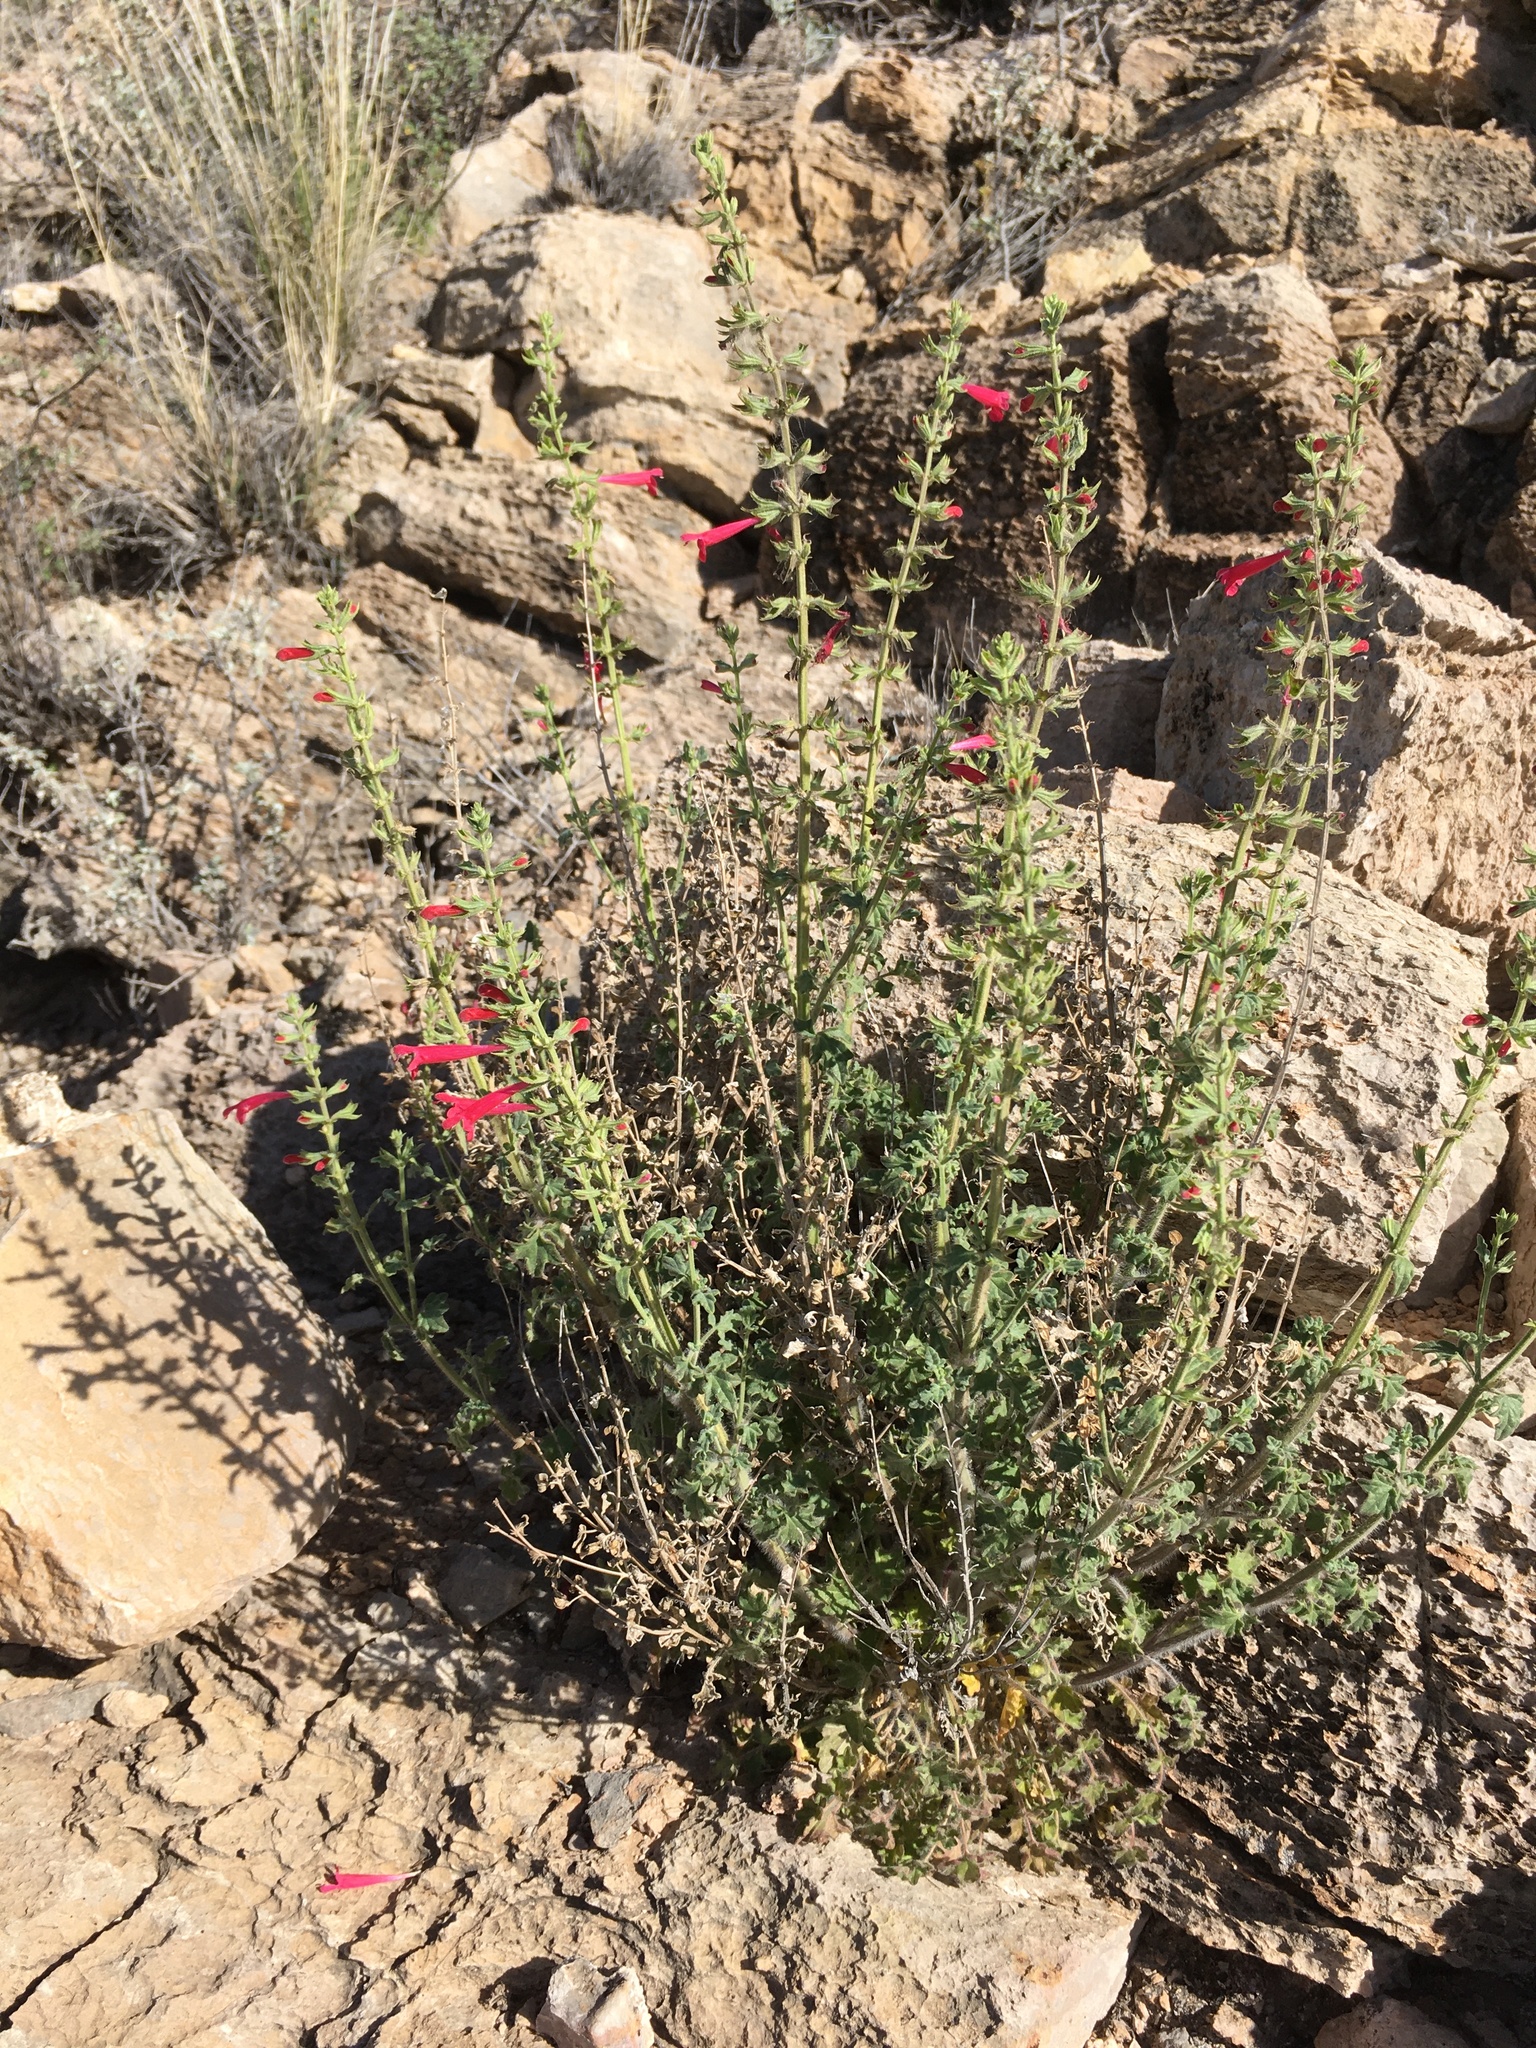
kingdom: Plantae
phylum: Tracheophyta
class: Magnoliopsida
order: Lamiales
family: Lamiaceae
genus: Salvia
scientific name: Salvia henryi
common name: Henry's sage
